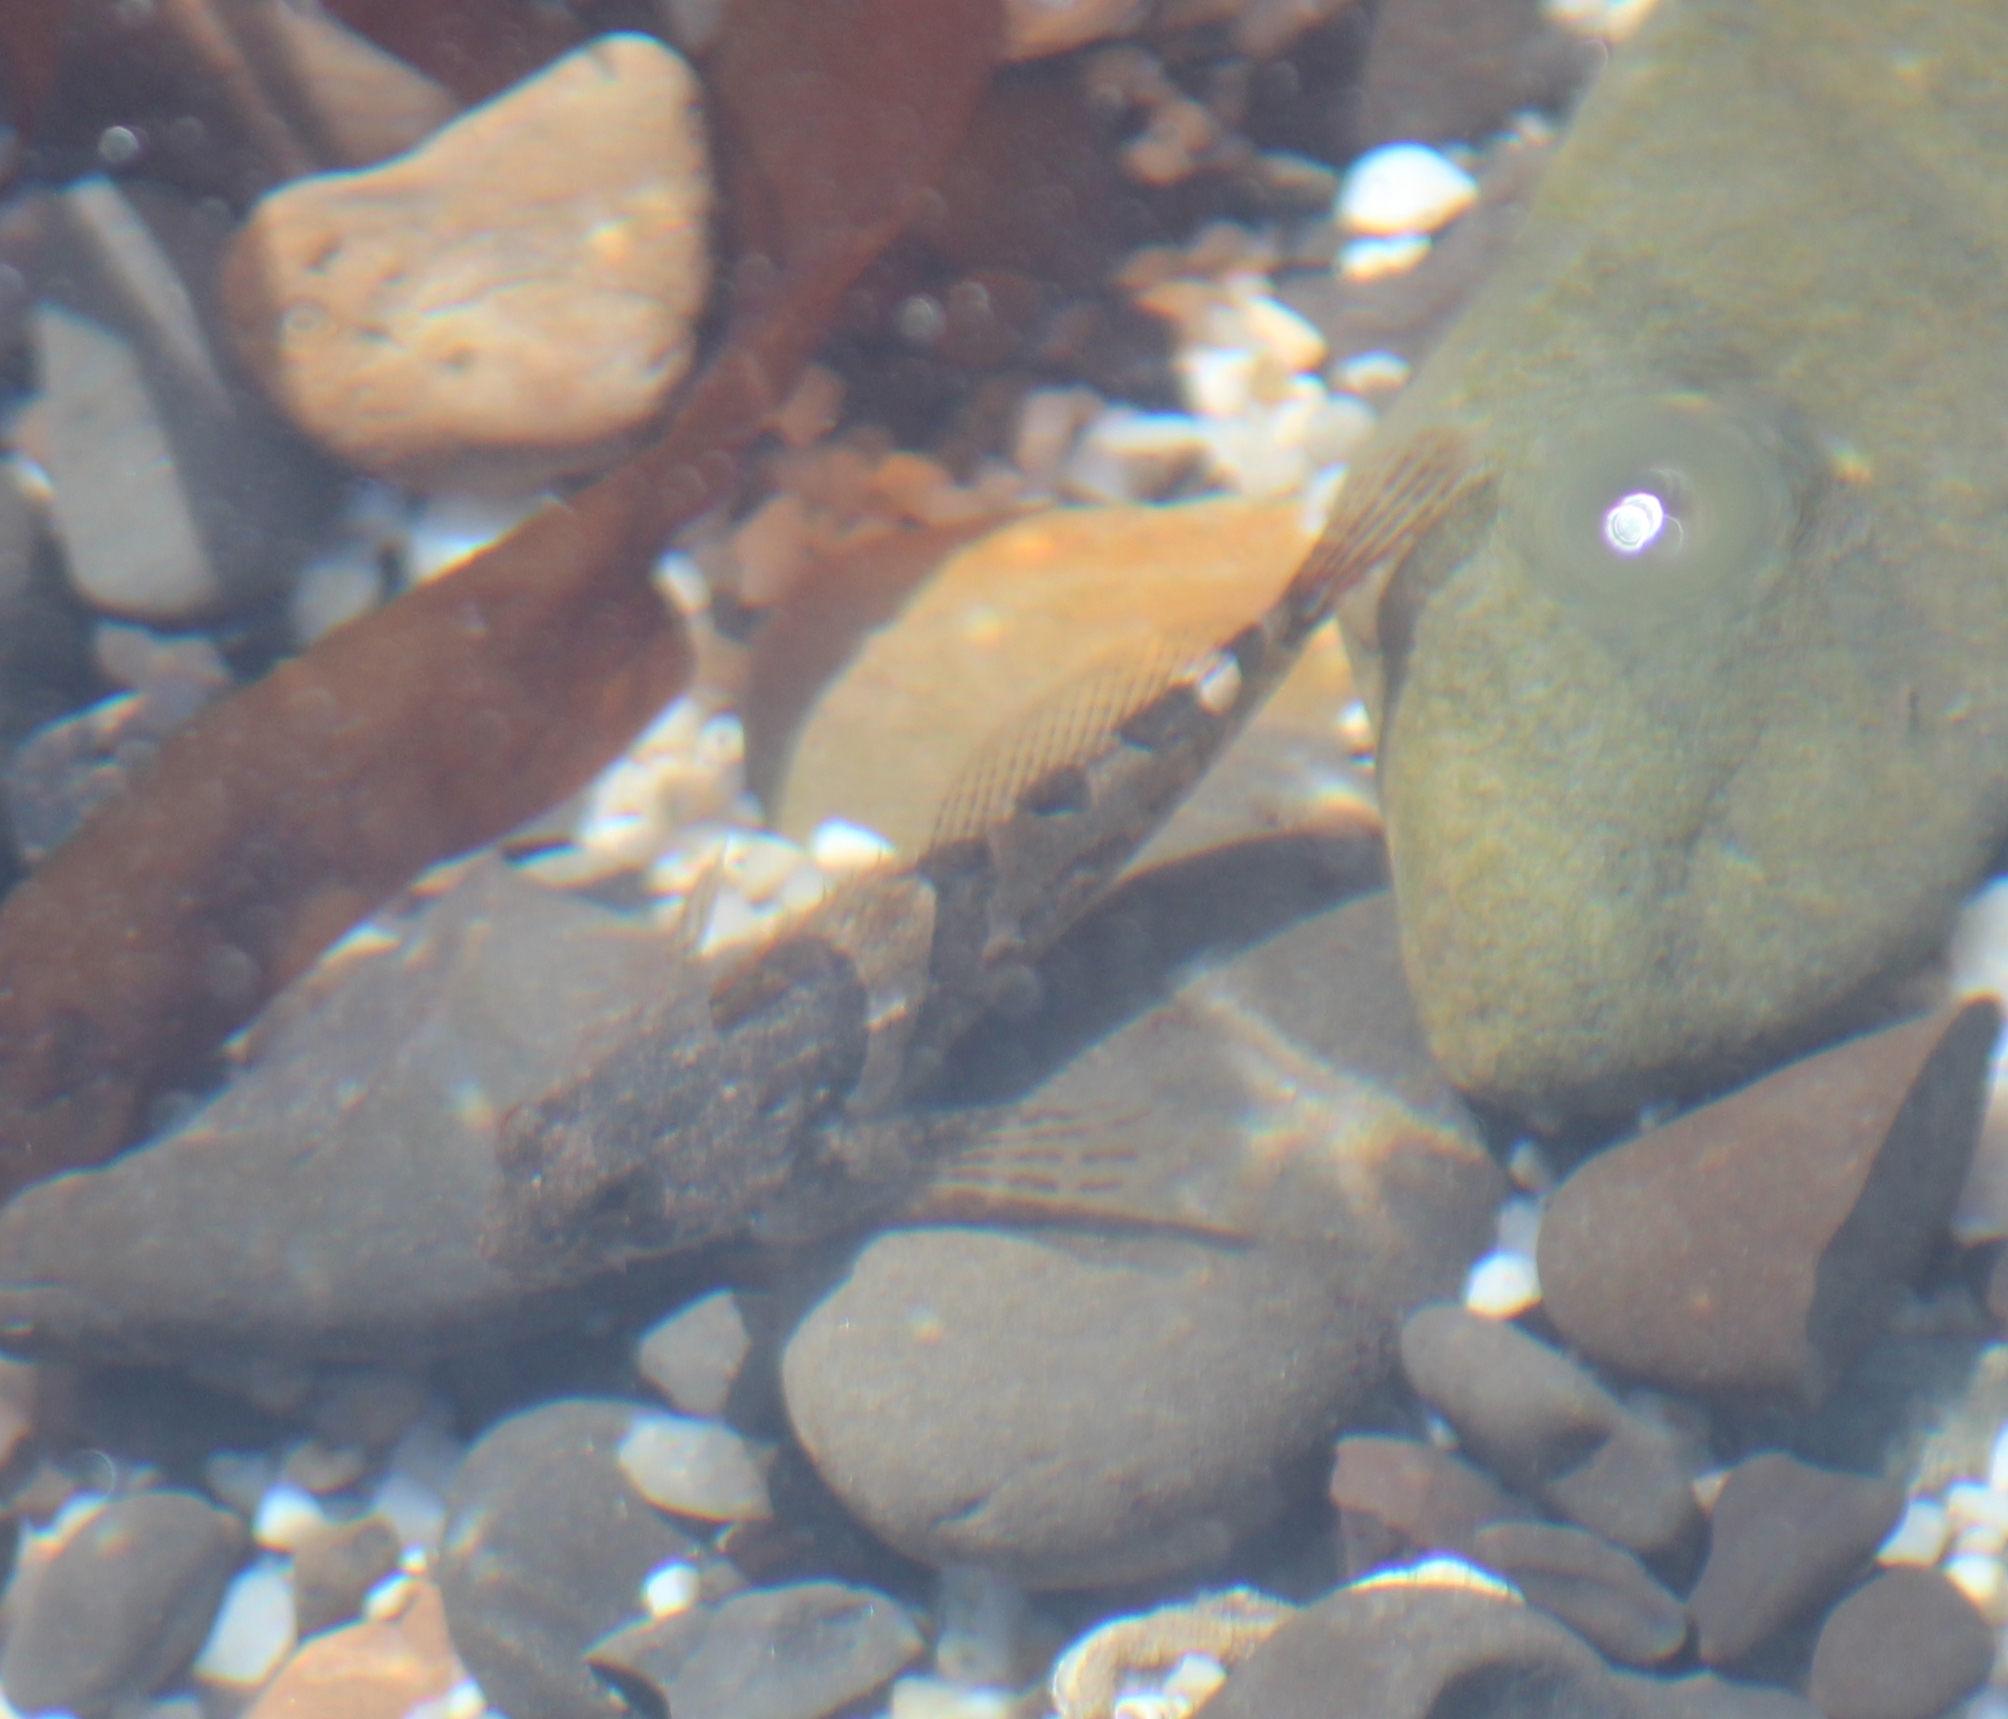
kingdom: Animalia
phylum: Chordata
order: Scorpaeniformes
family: Cottidae
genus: Oligocottus
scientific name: Oligocottus maculosus
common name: Tidepool sculpin
